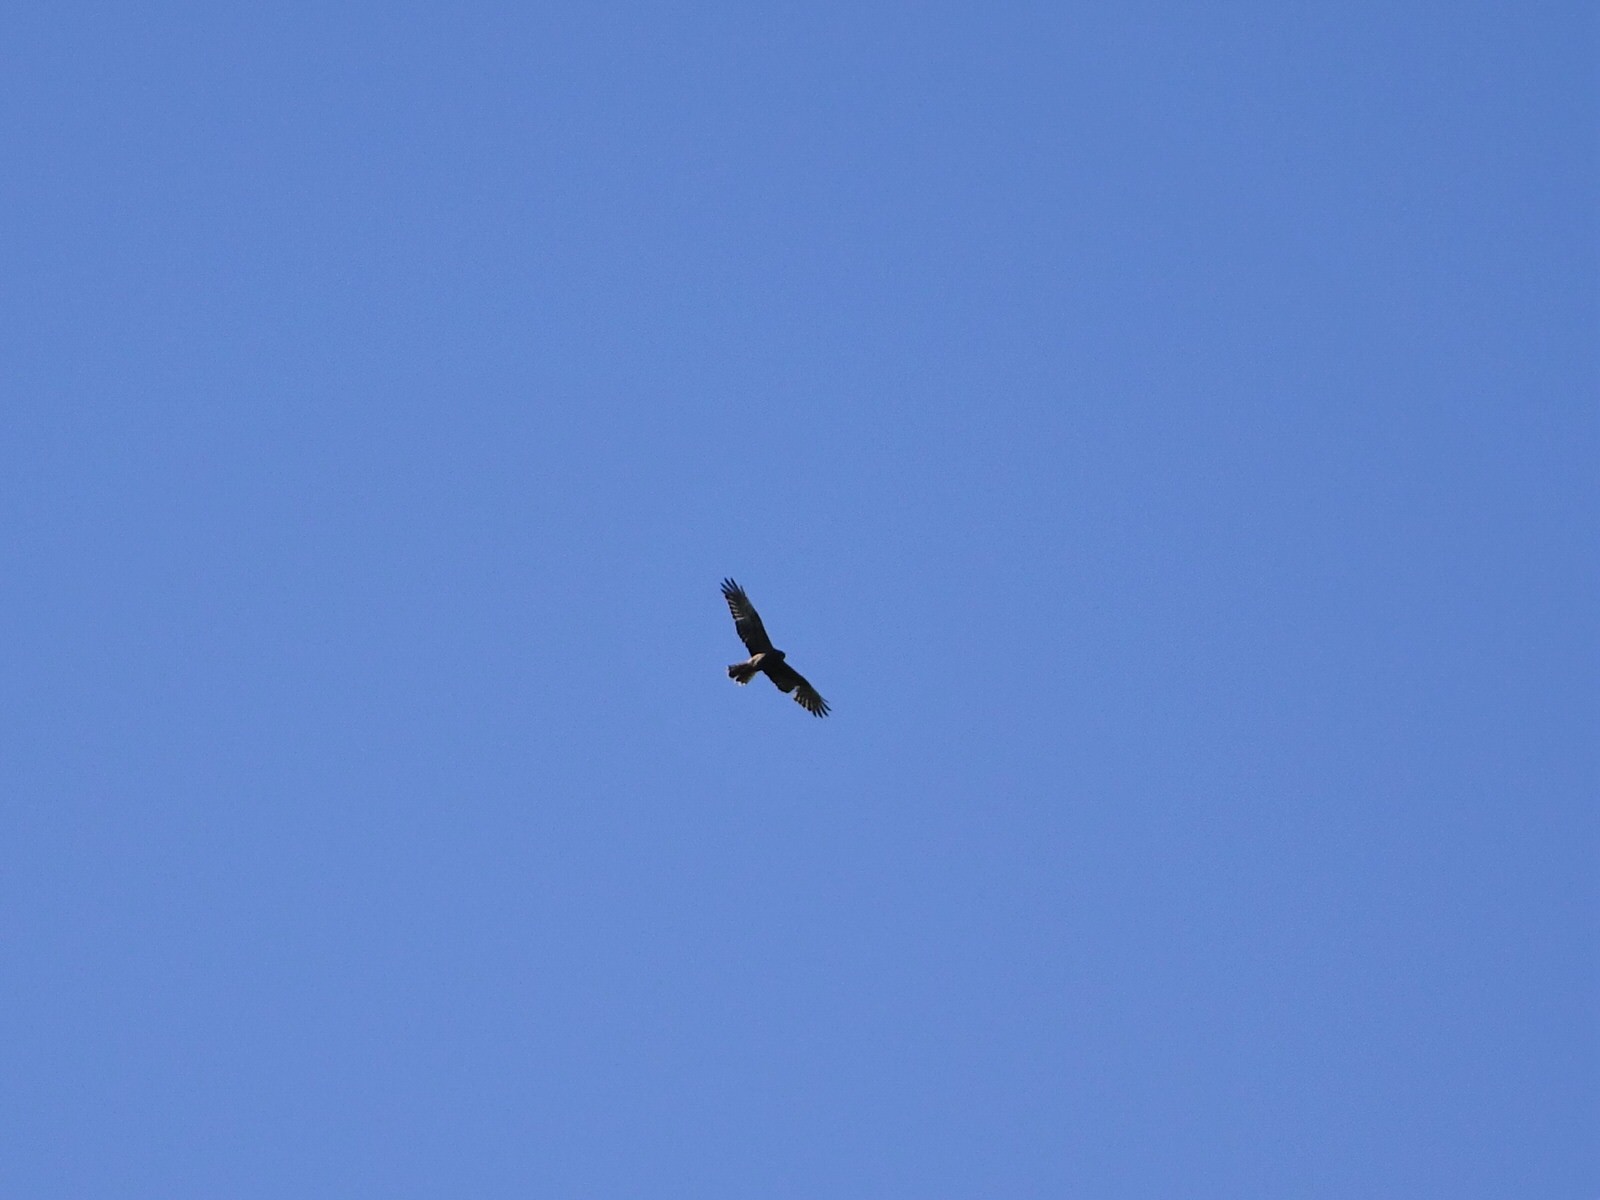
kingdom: Animalia
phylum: Chordata
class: Aves
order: Accipitriformes
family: Accipitridae
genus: Circus
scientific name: Circus approximans
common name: Swamp harrier
